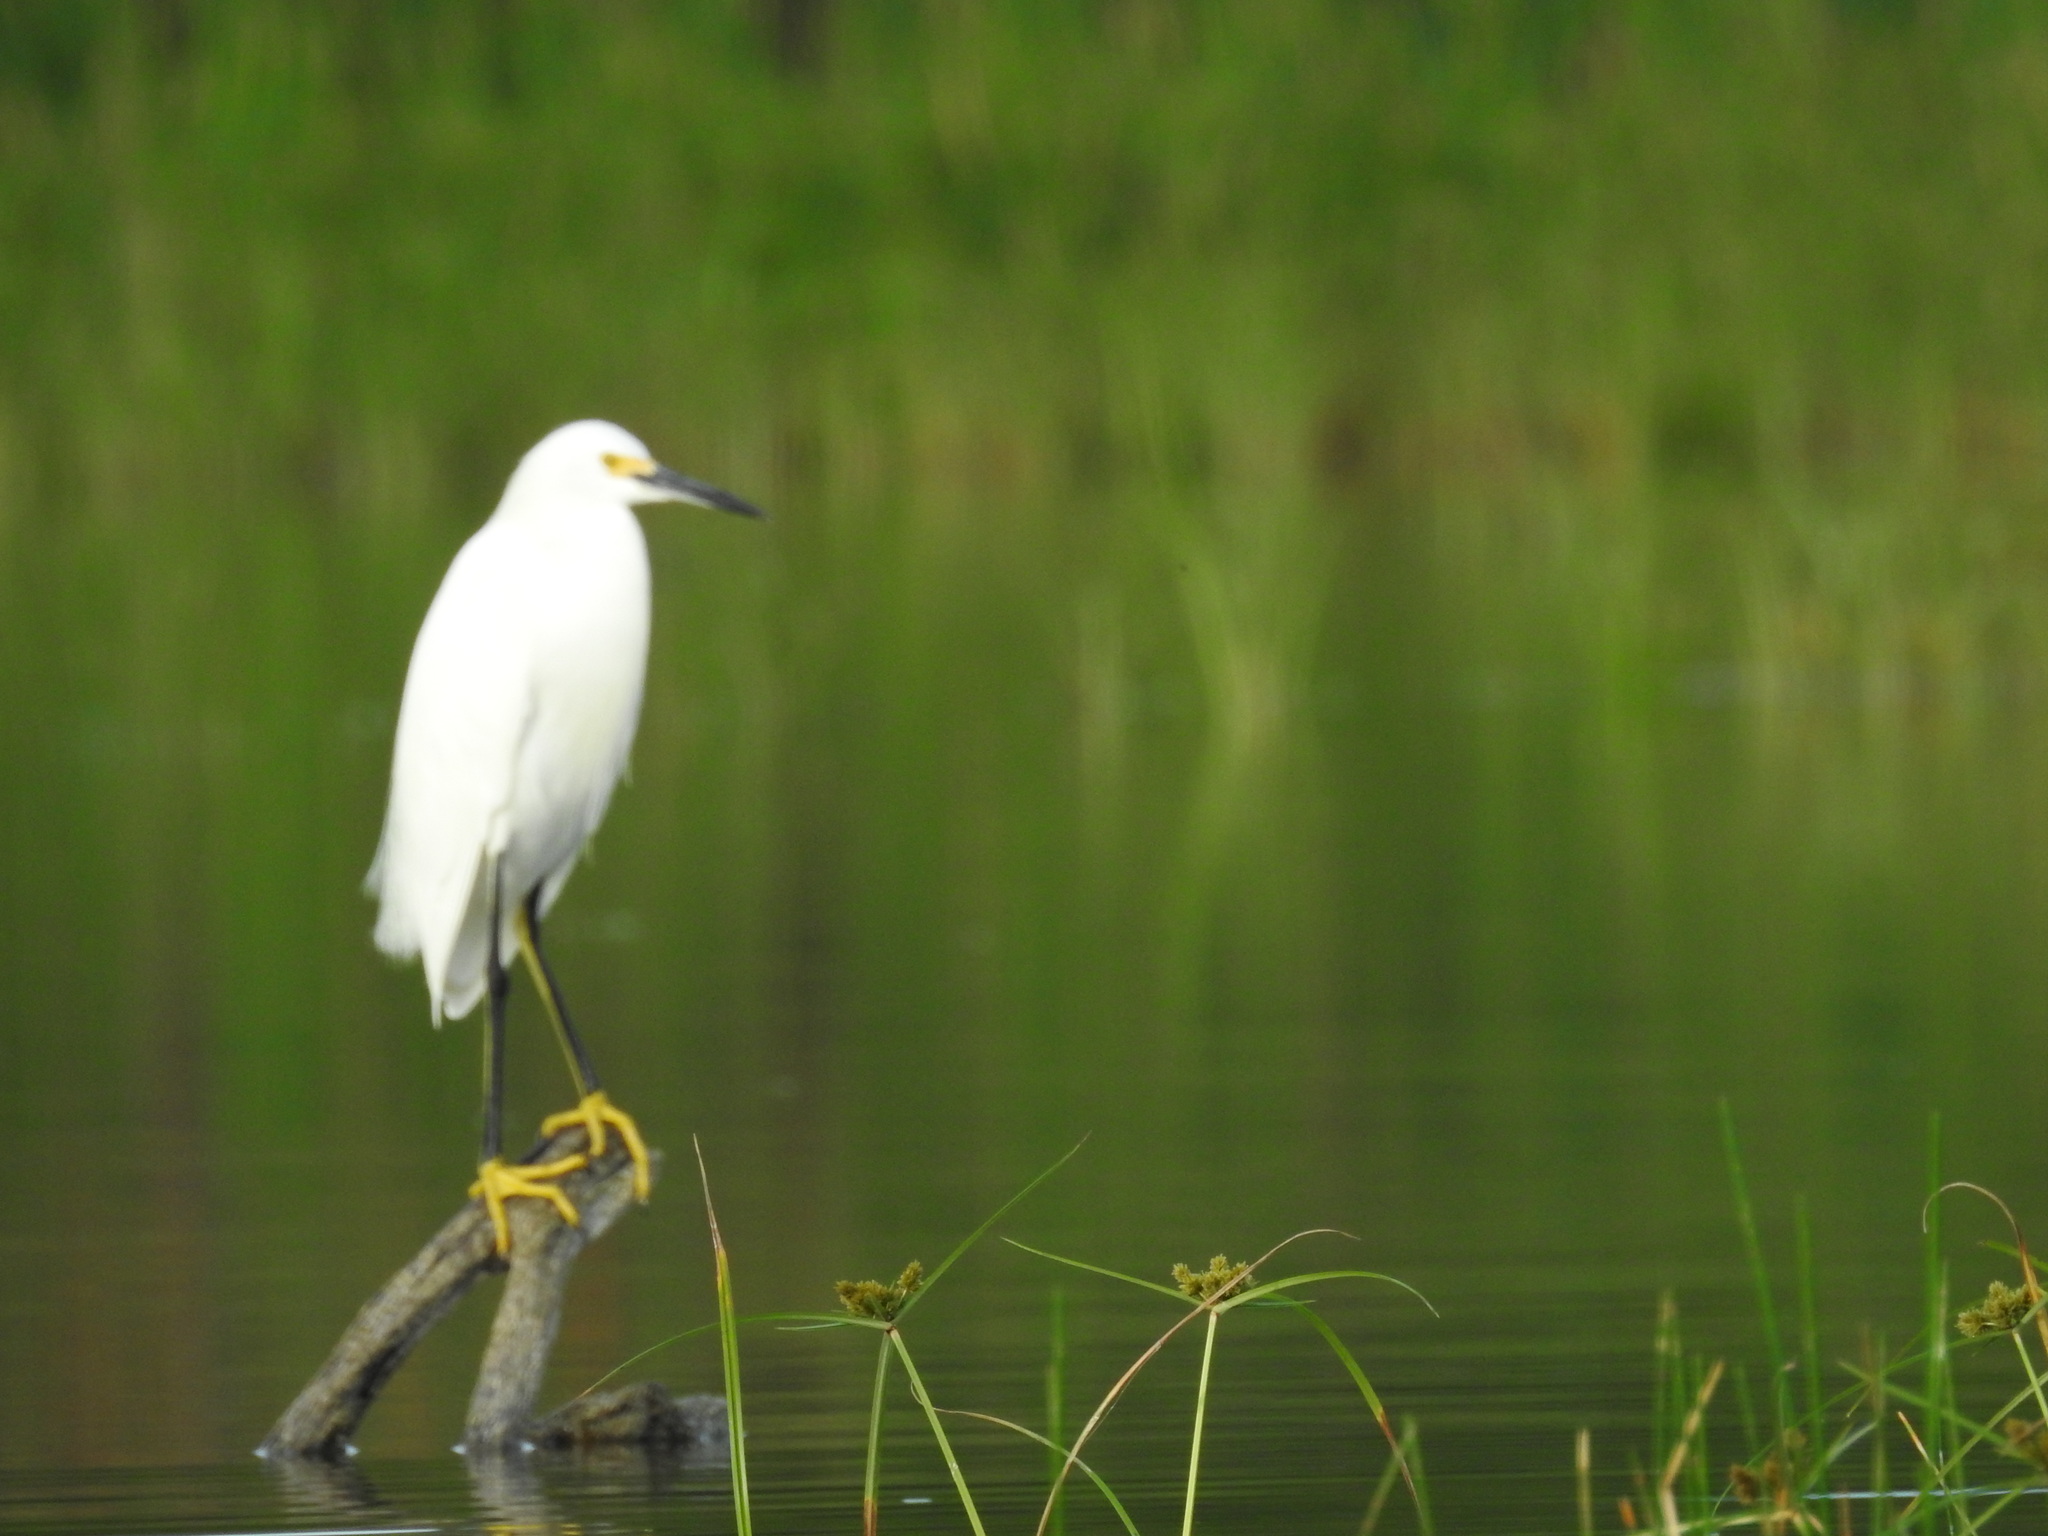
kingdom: Animalia
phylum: Chordata
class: Aves
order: Pelecaniformes
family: Ardeidae
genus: Egretta
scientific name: Egretta thula
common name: Snowy egret
